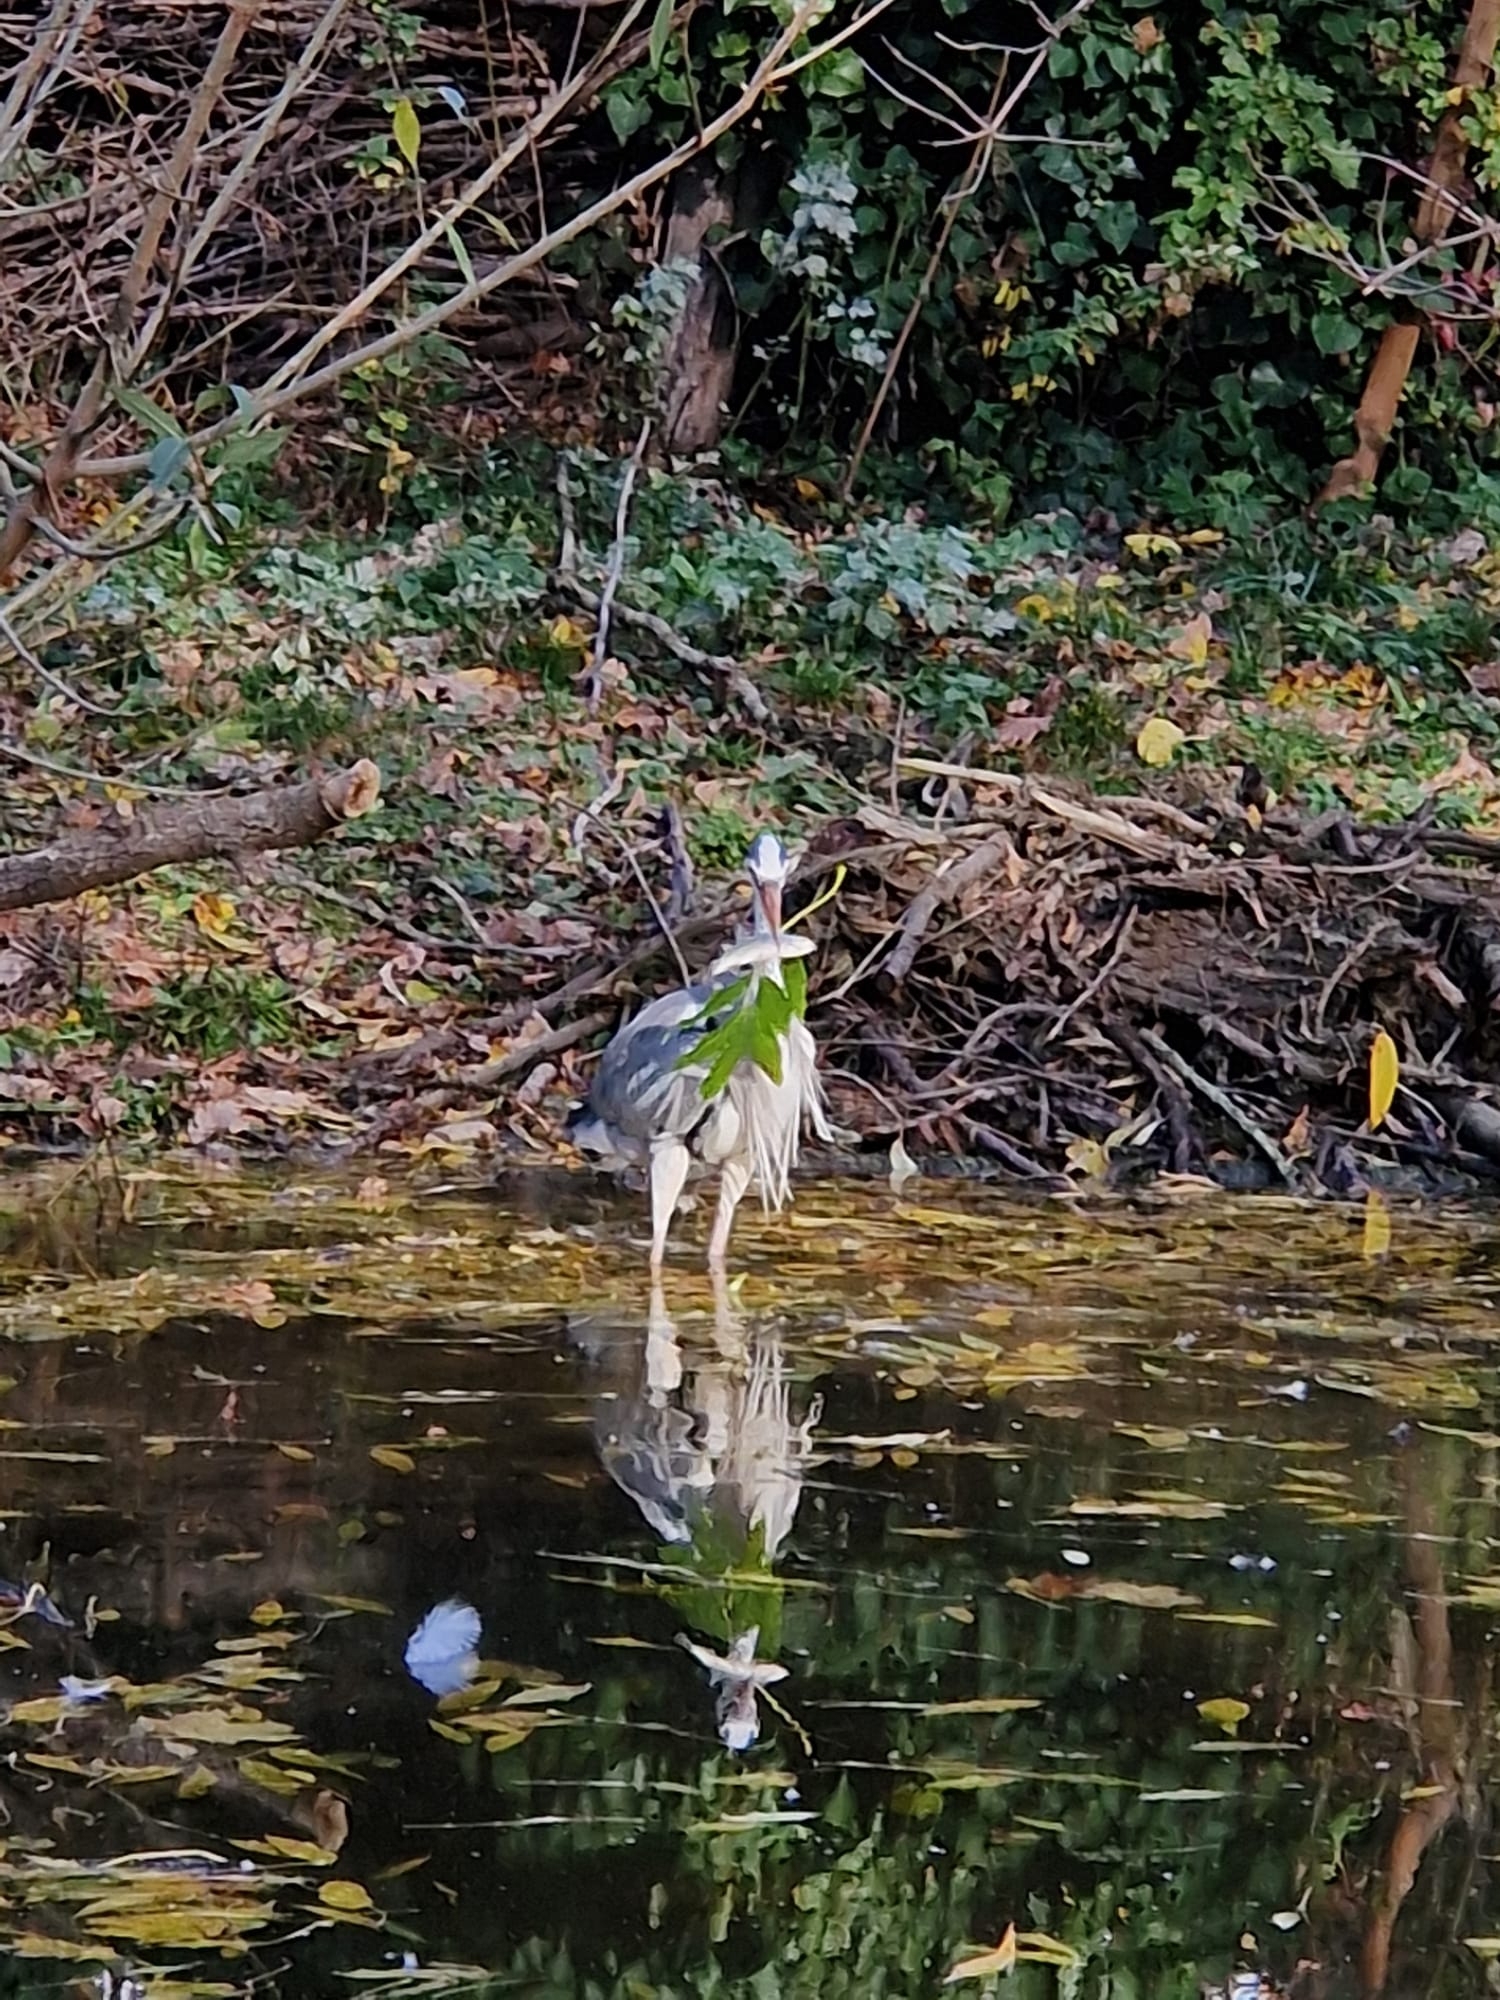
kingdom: Animalia
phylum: Chordata
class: Aves
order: Pelecaniformes
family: Ardeidae
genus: Ardea
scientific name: Ardea cinerea
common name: Grey heron
